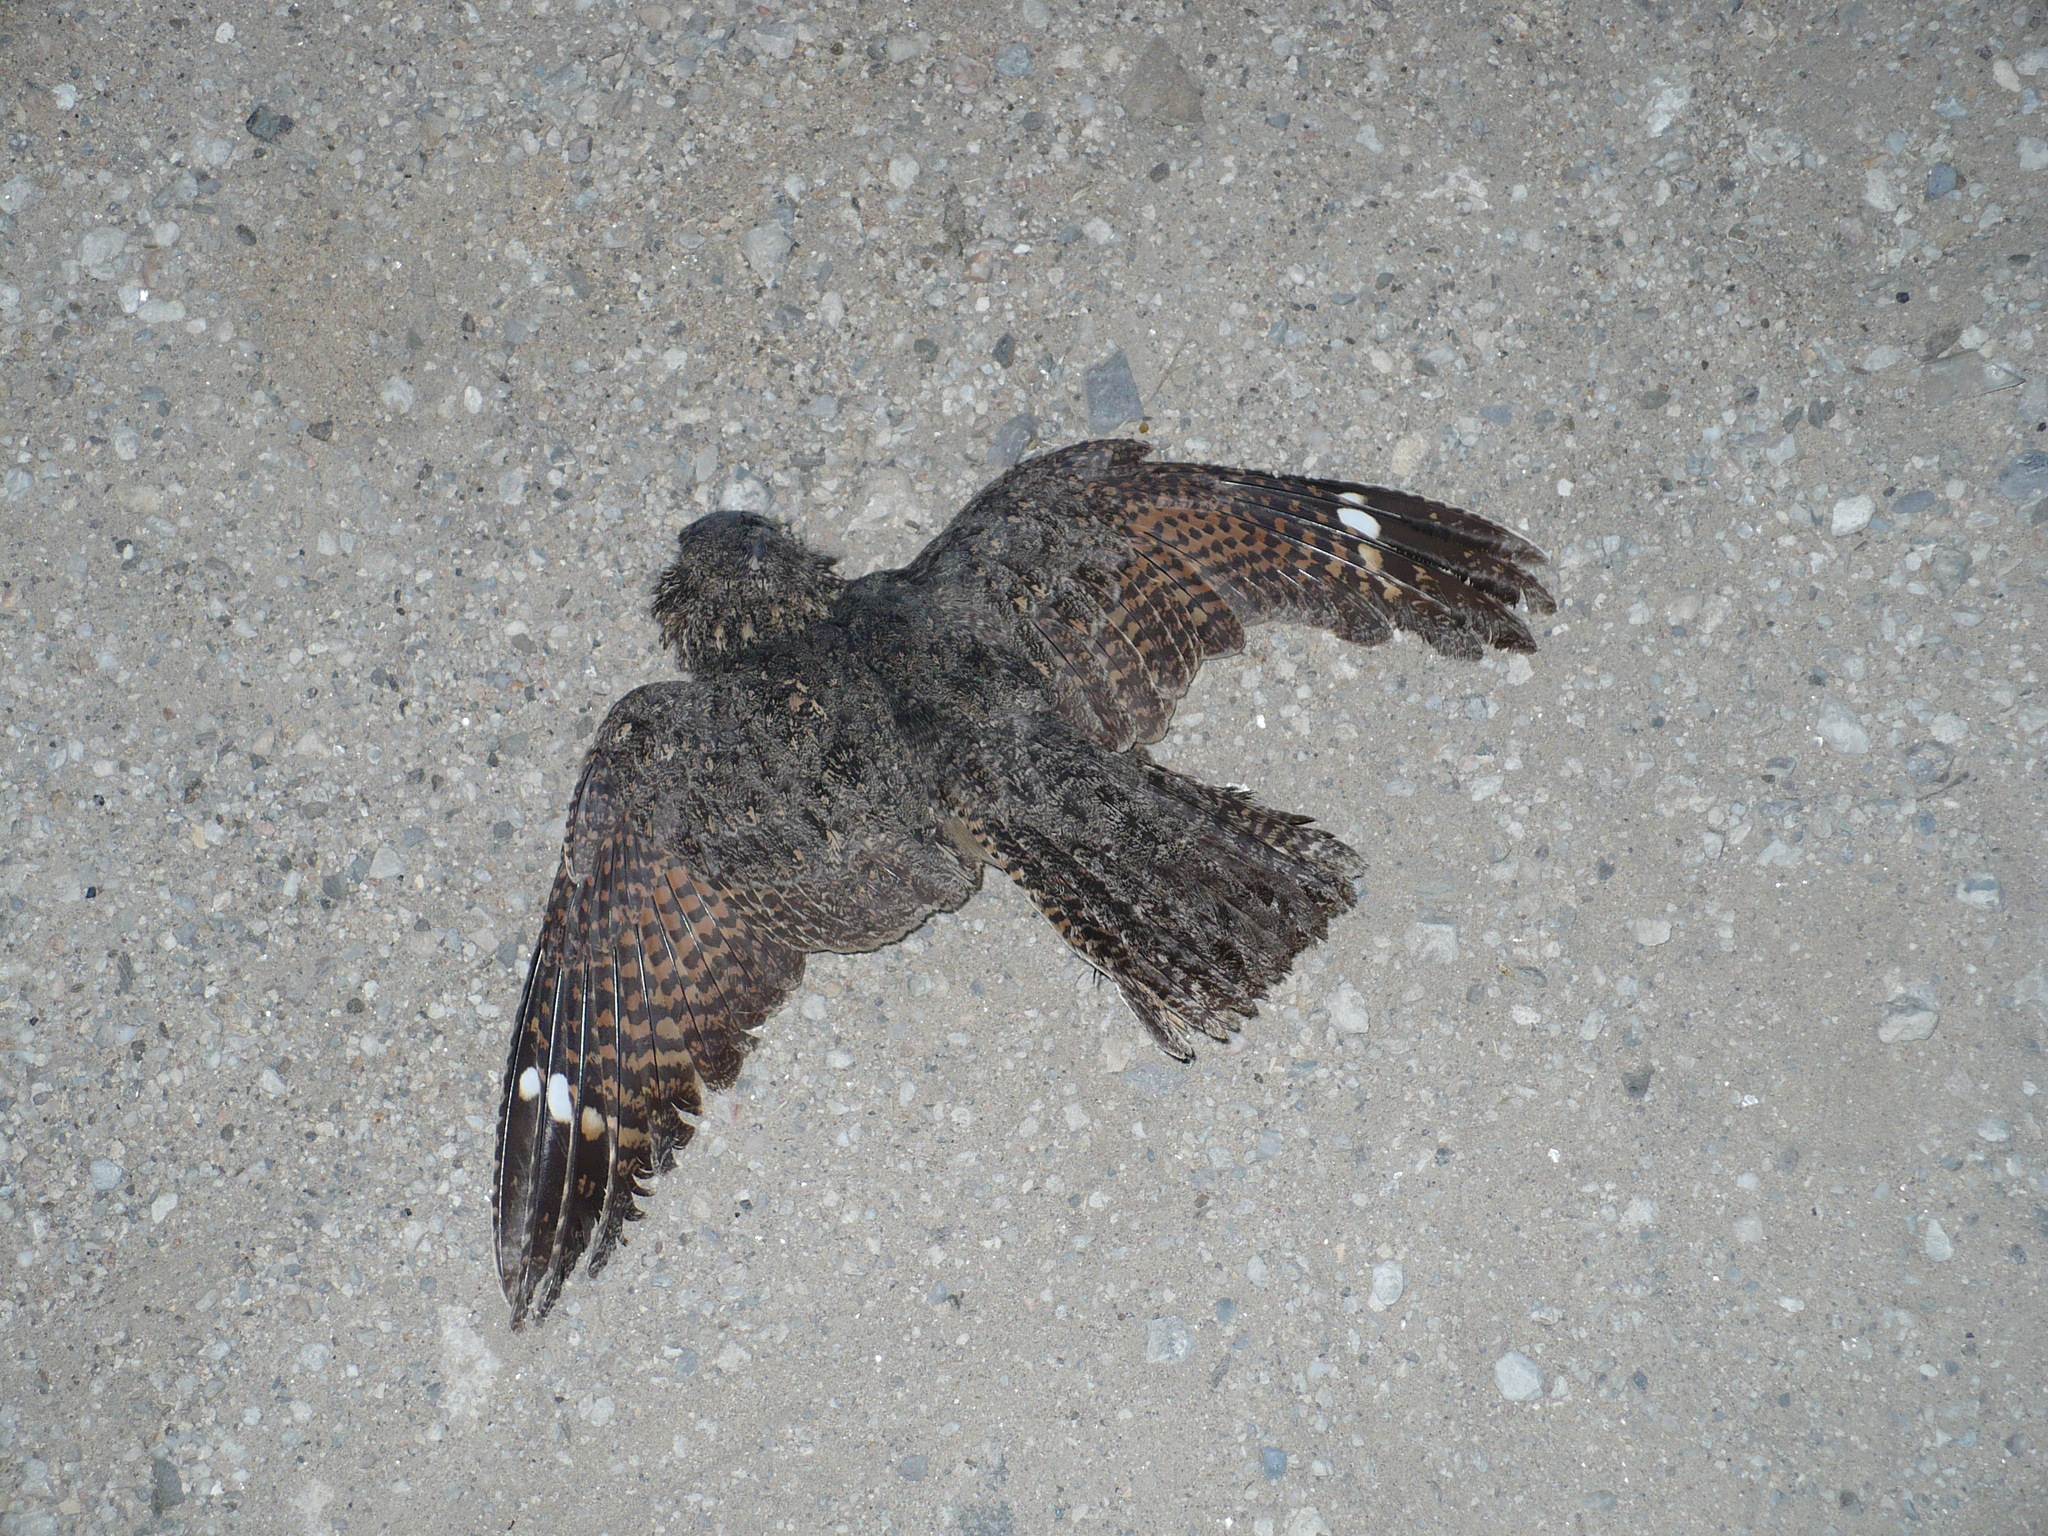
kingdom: Animalia
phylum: Chordata
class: Aves
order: Caprimulgiformes
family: Caprimulgidae
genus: Caprimulgus
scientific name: Caprimulgus tristigma
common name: Freckled nightjar
